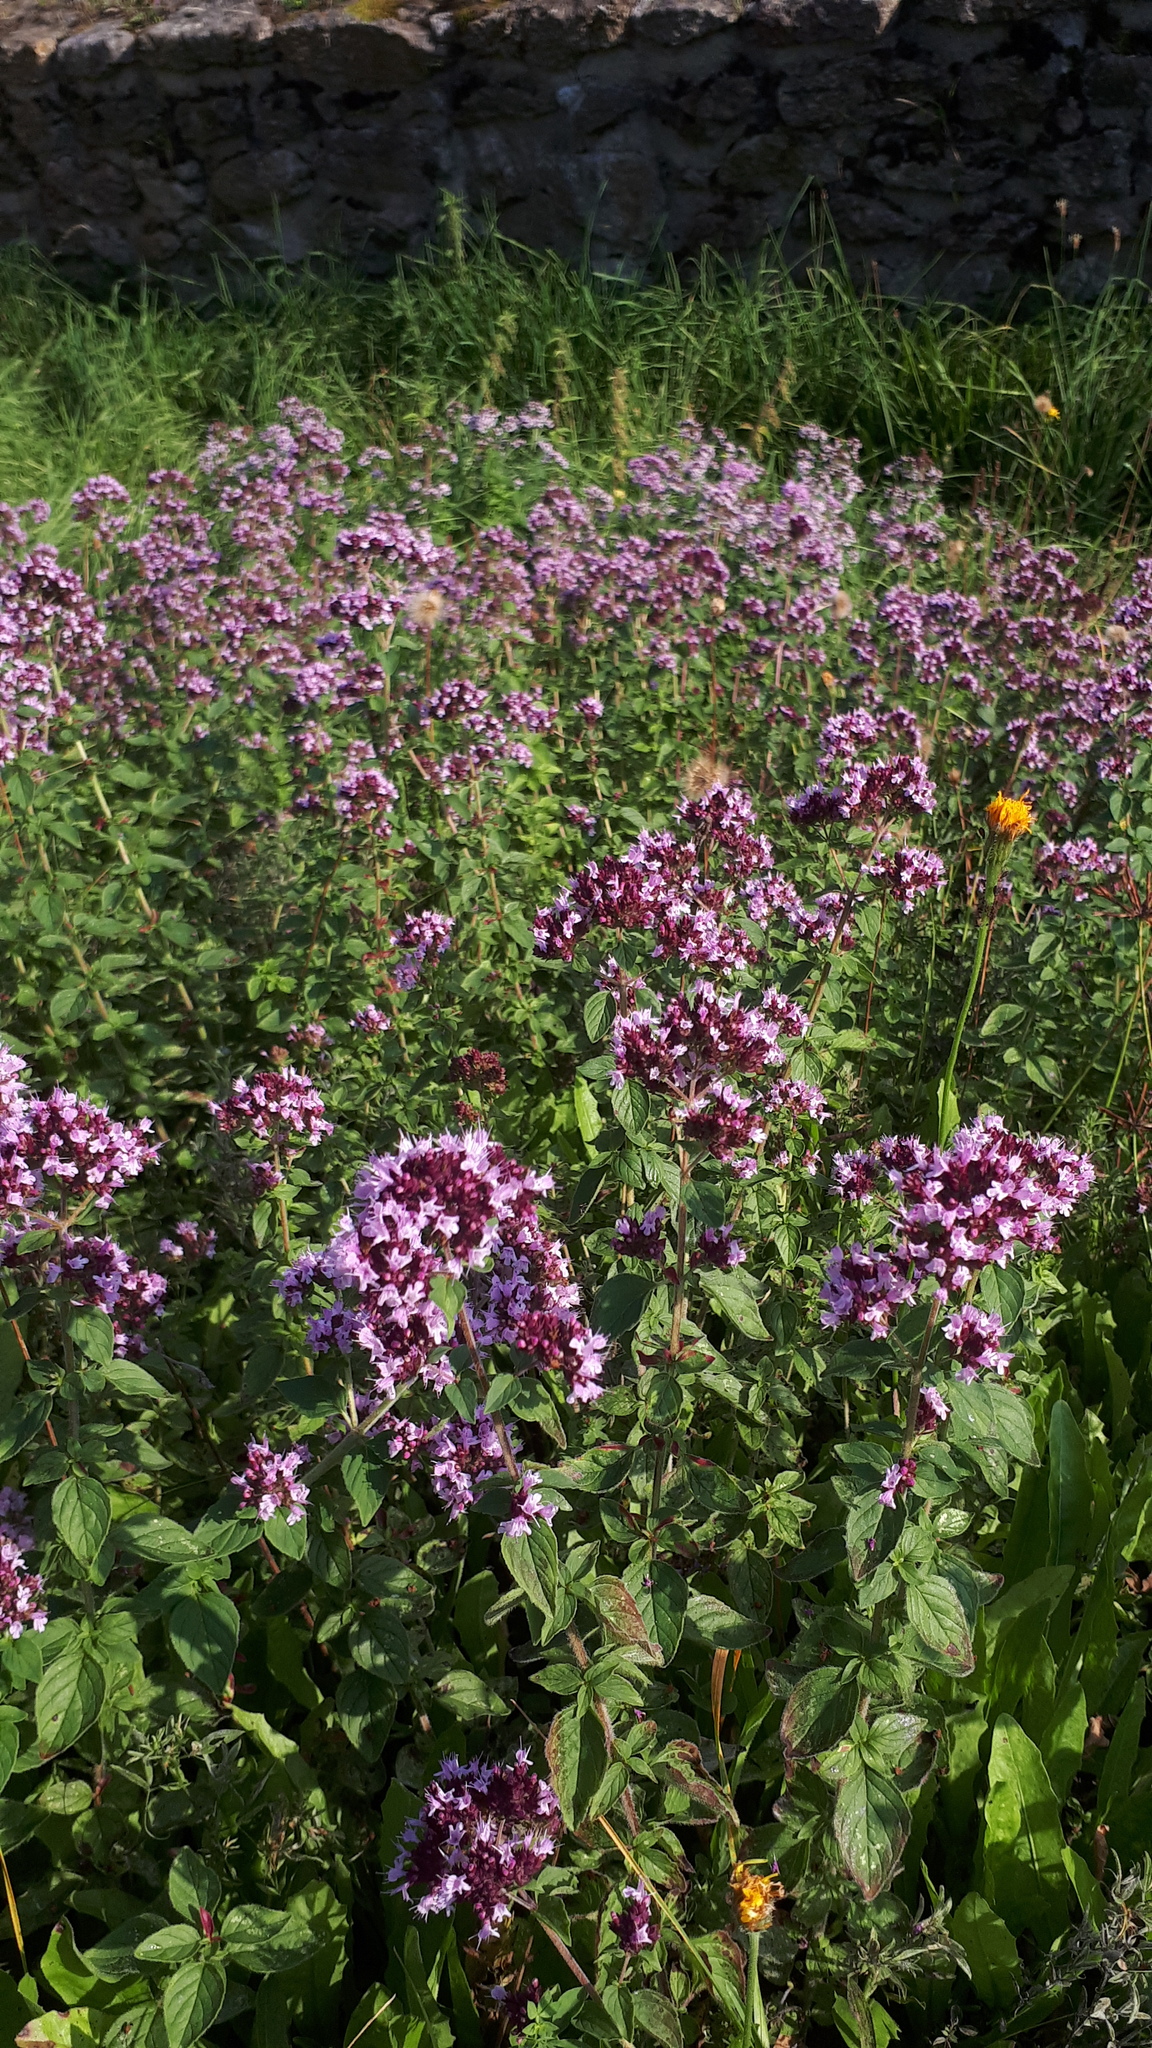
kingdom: Plantae
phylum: Tracheophyta
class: Magnoliopsida
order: Lamiales
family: Lamiaceae
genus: Origanum
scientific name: Origanum vulgare
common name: Wild marjoram
